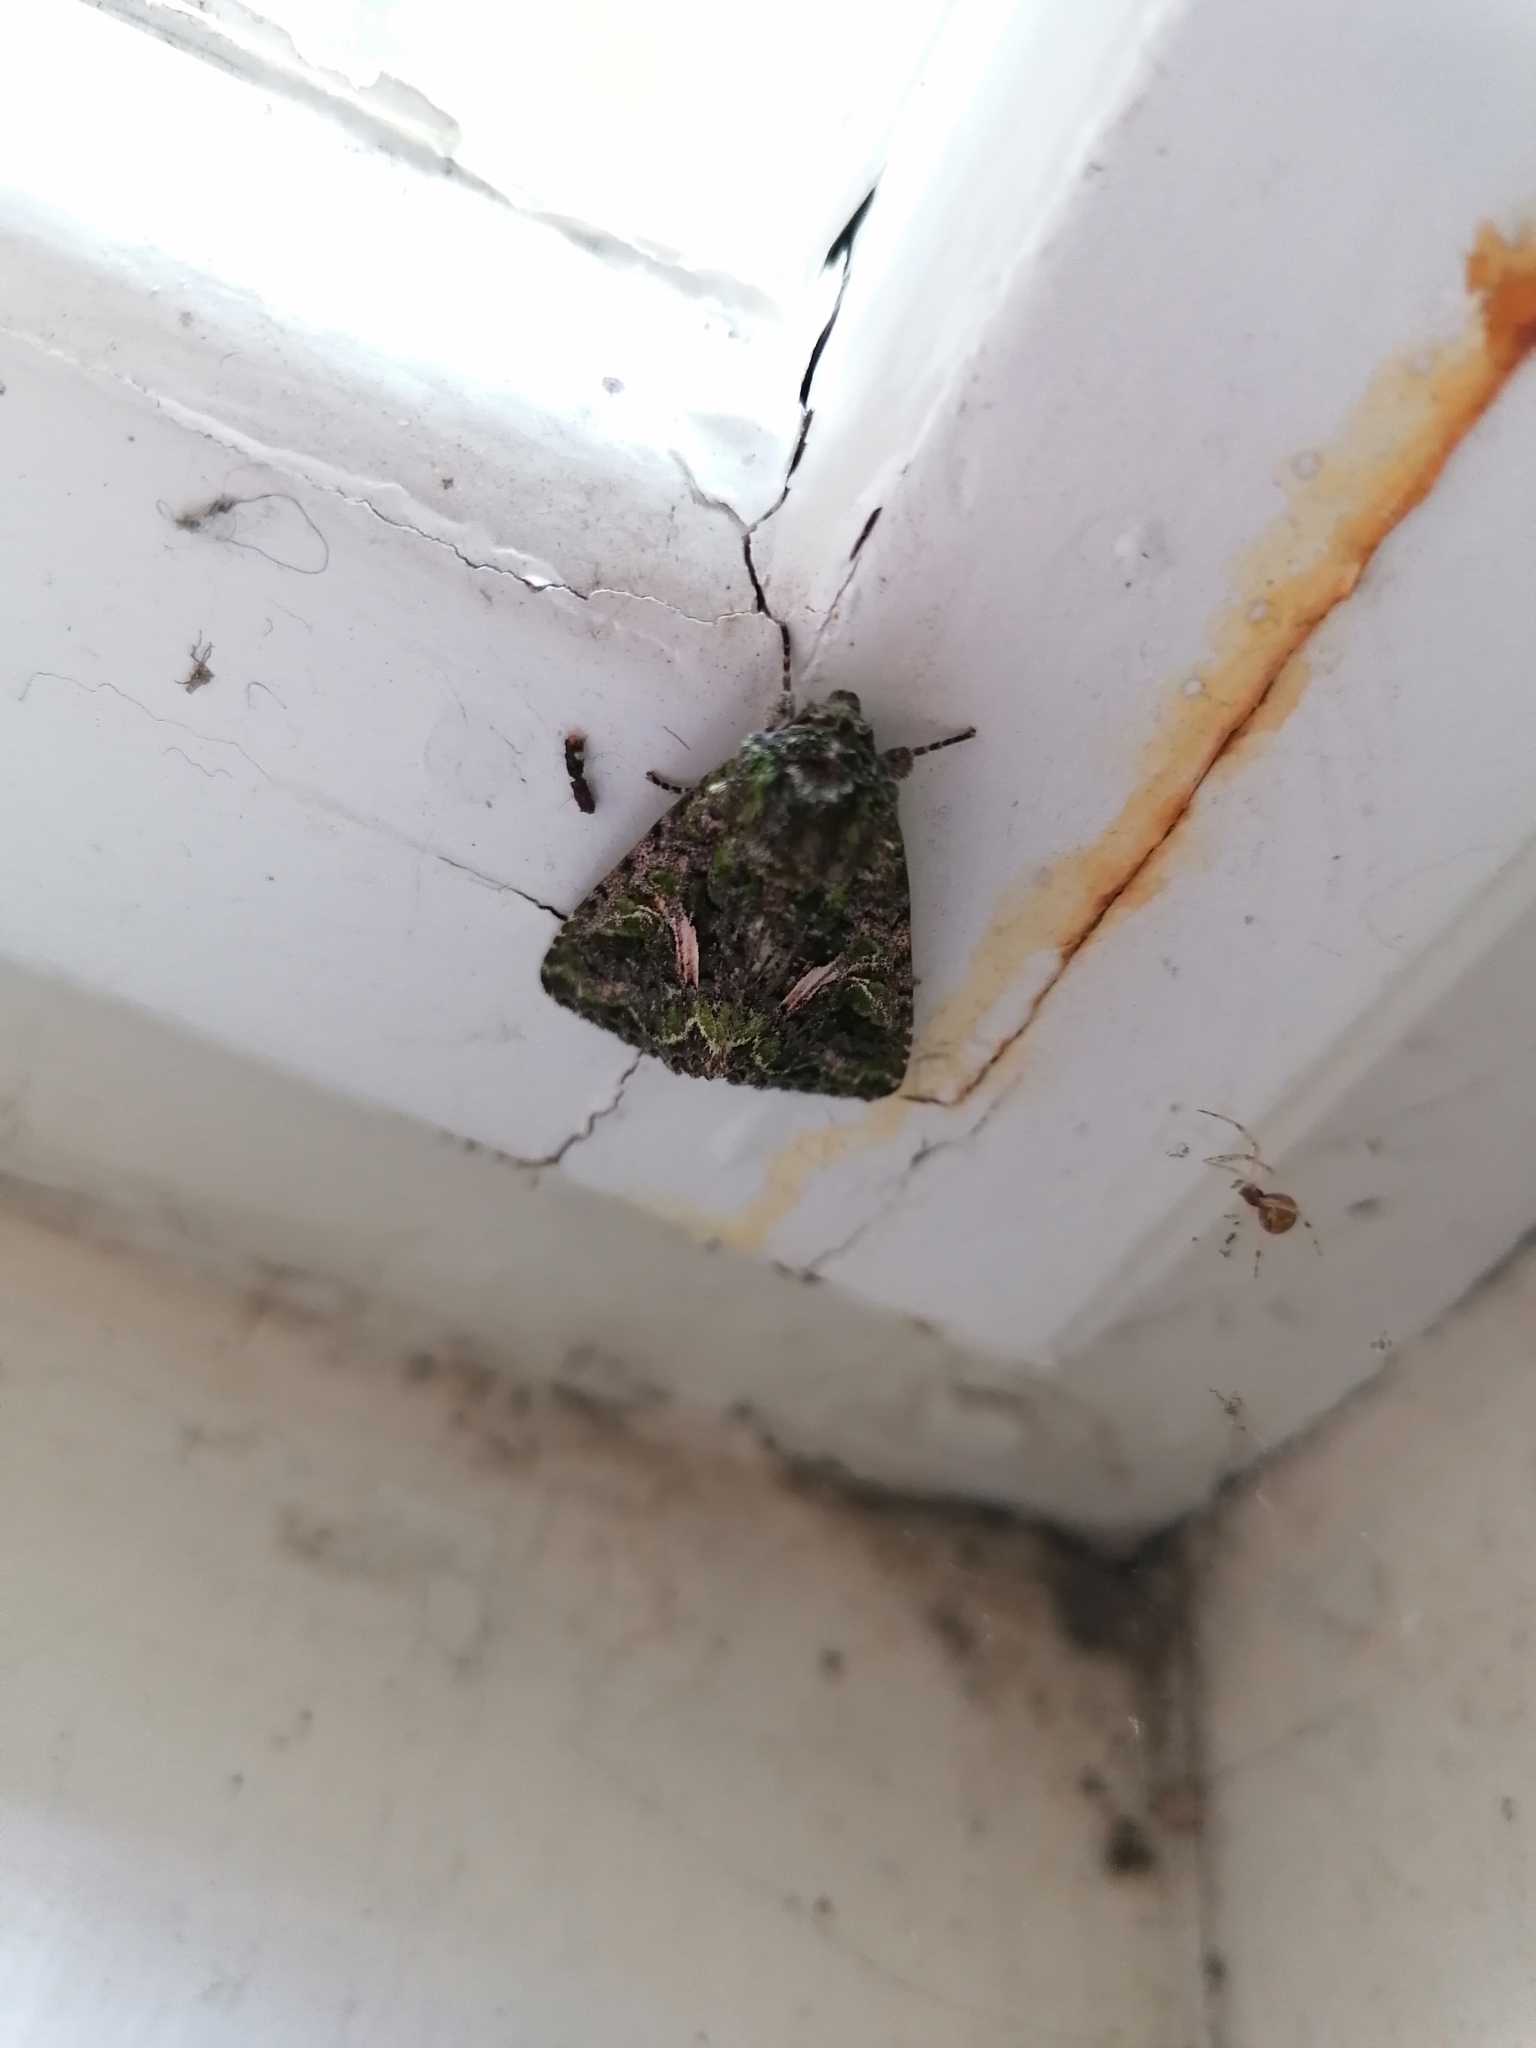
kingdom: Animalia
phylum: Arthropoda
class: Insecta
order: Lepidoptera
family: Noctuidae
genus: Trachea
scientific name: Trachea atriplicis
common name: Orache moth
